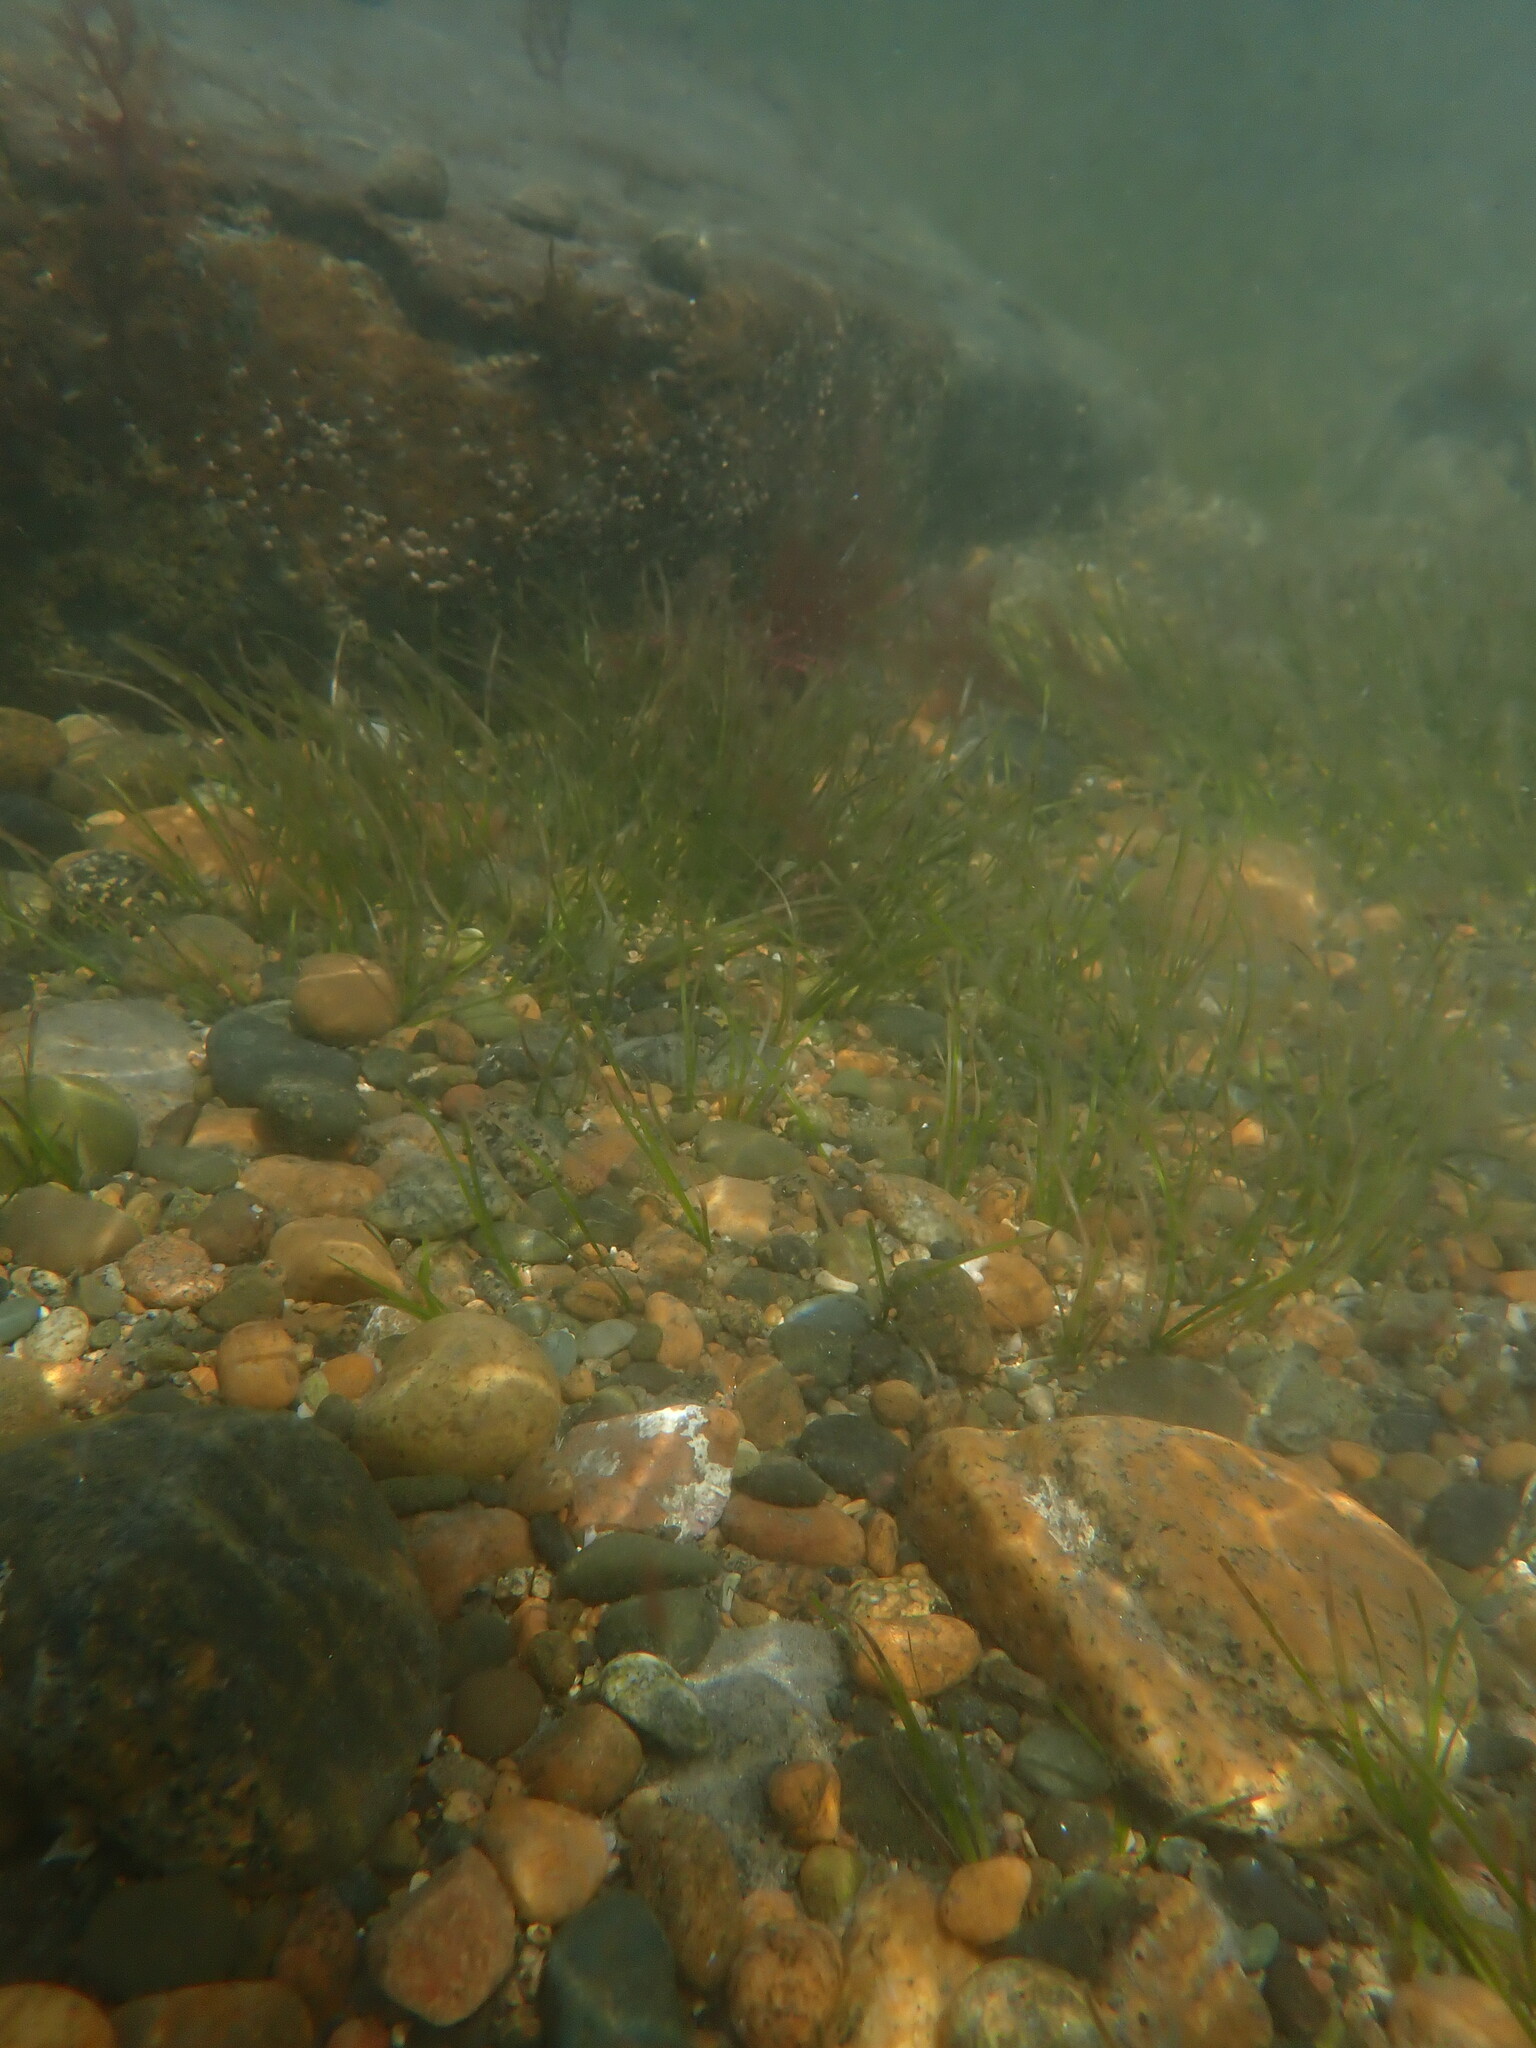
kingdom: Plantae
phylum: Tracheophyta
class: Liliopsida
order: Alismatales
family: Zosteraceae
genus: Zostera
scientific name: Zostera muelleri
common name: Species code: zc
